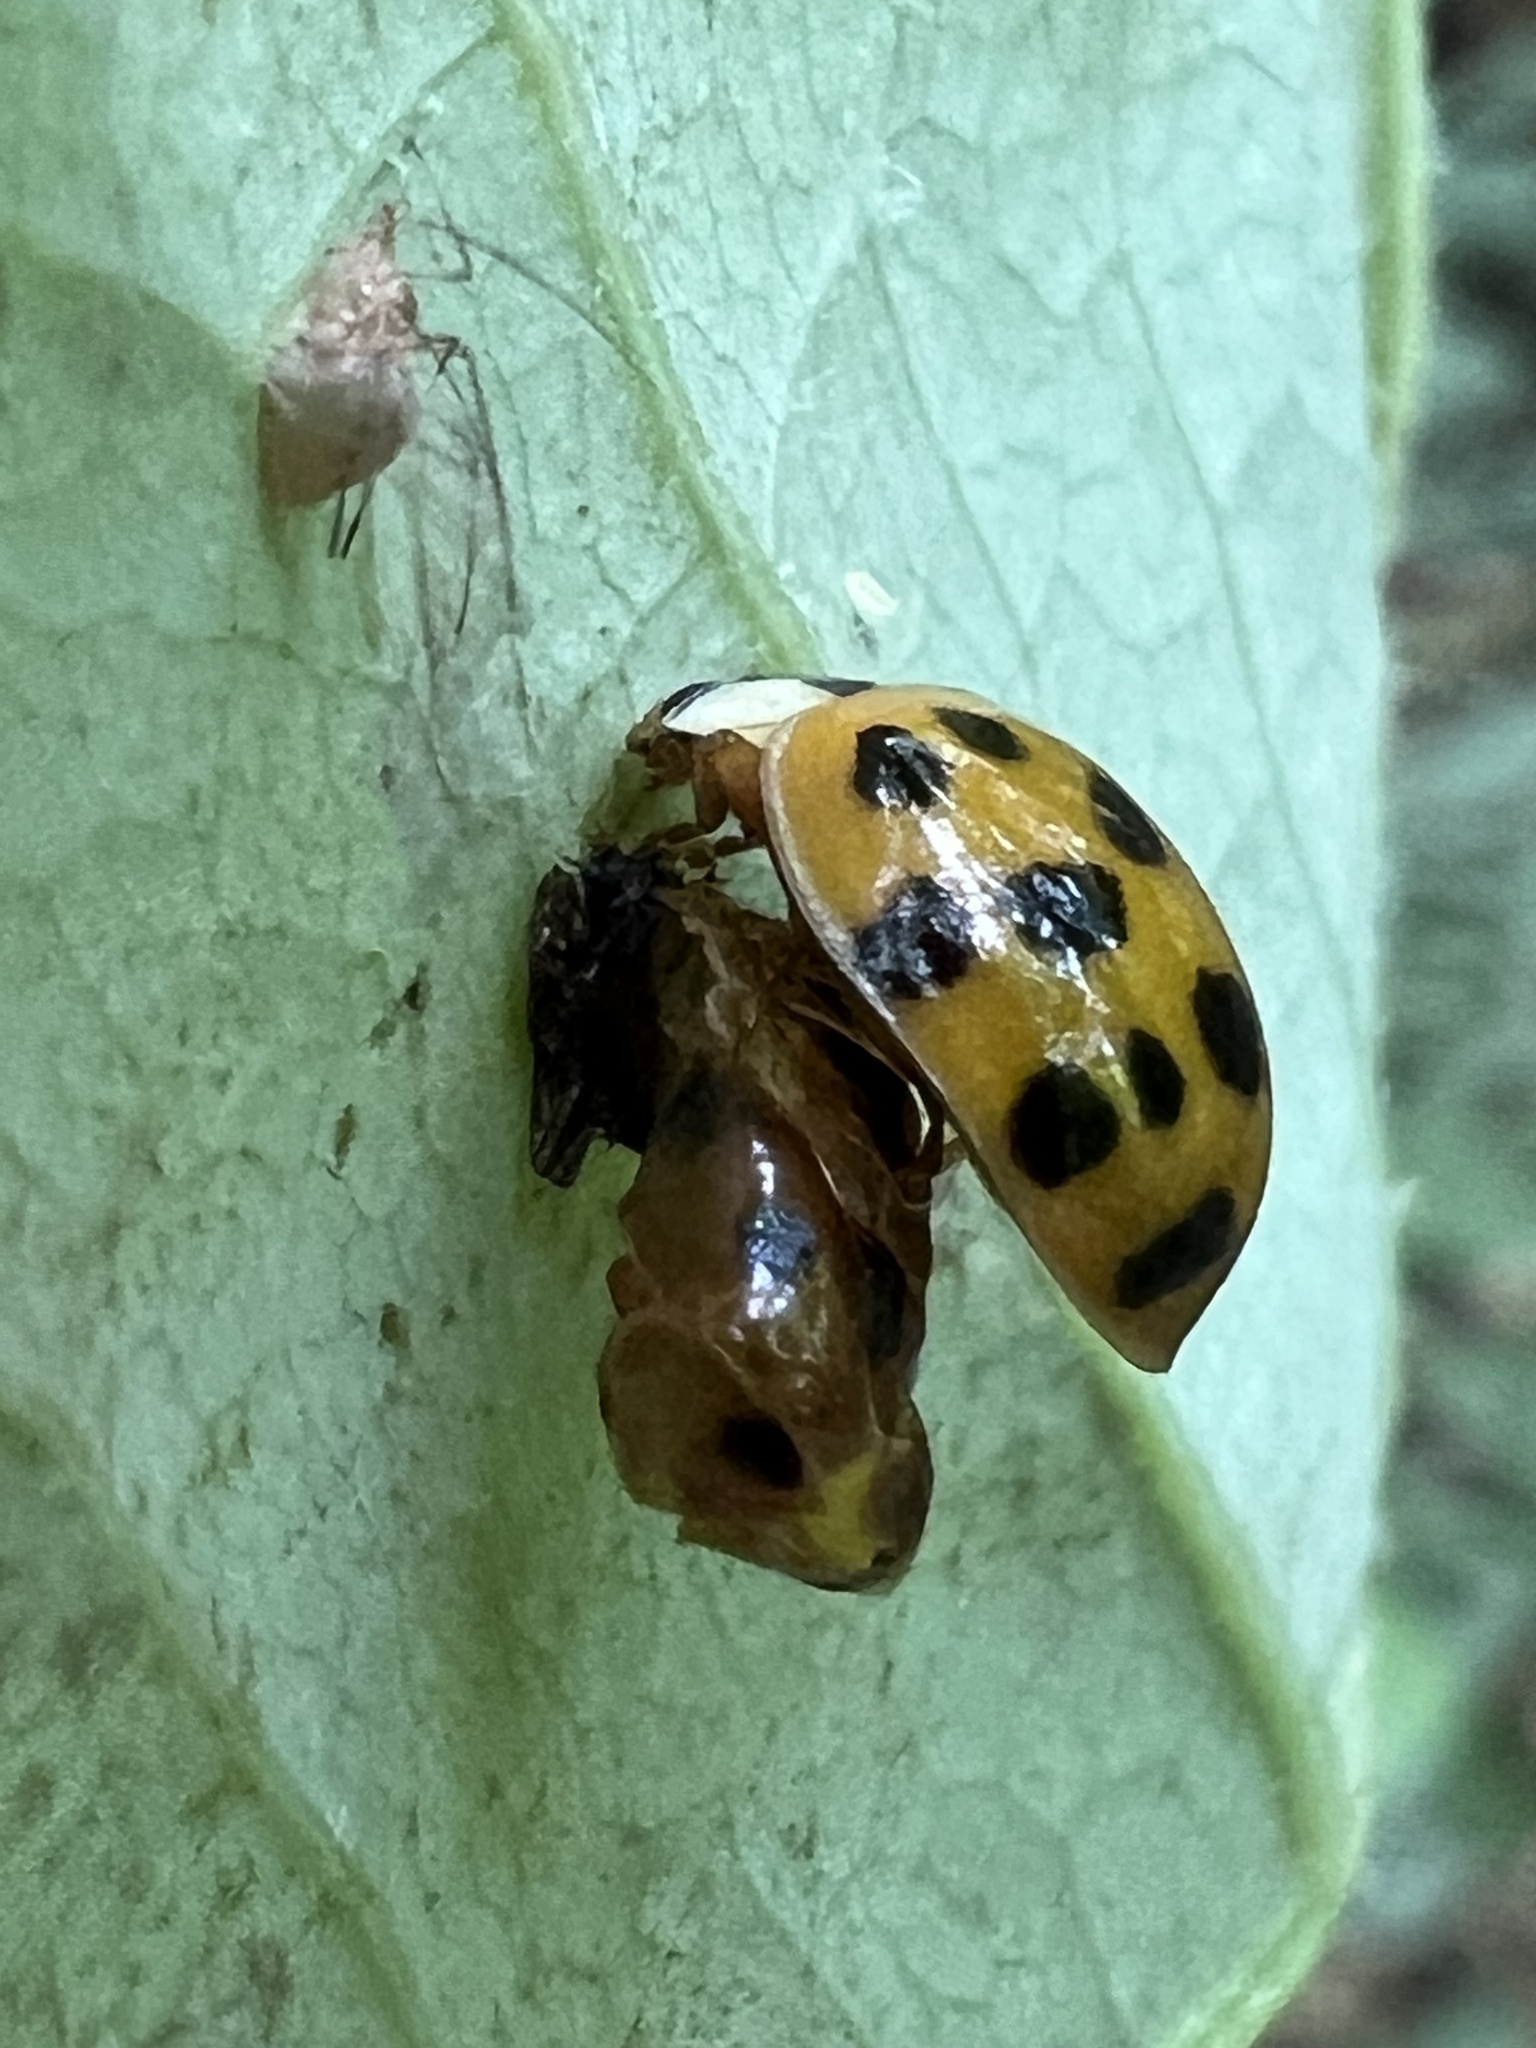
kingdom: Animalia
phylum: Arthropoda
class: Insecta
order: Coleoptera
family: Coccinellidae
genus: Harmonia
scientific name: Harmonia axyridis
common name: Harlequin ladybird
